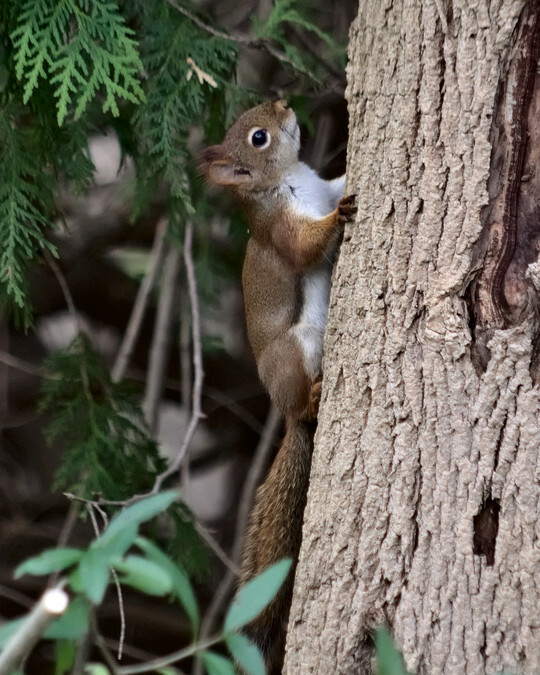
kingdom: Animalia
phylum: Chordata
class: Mammalia
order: Rodentia
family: Sciuridae
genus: Tamiasciurus
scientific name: Tamiasciurus hudsonicus
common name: Red squirrel
